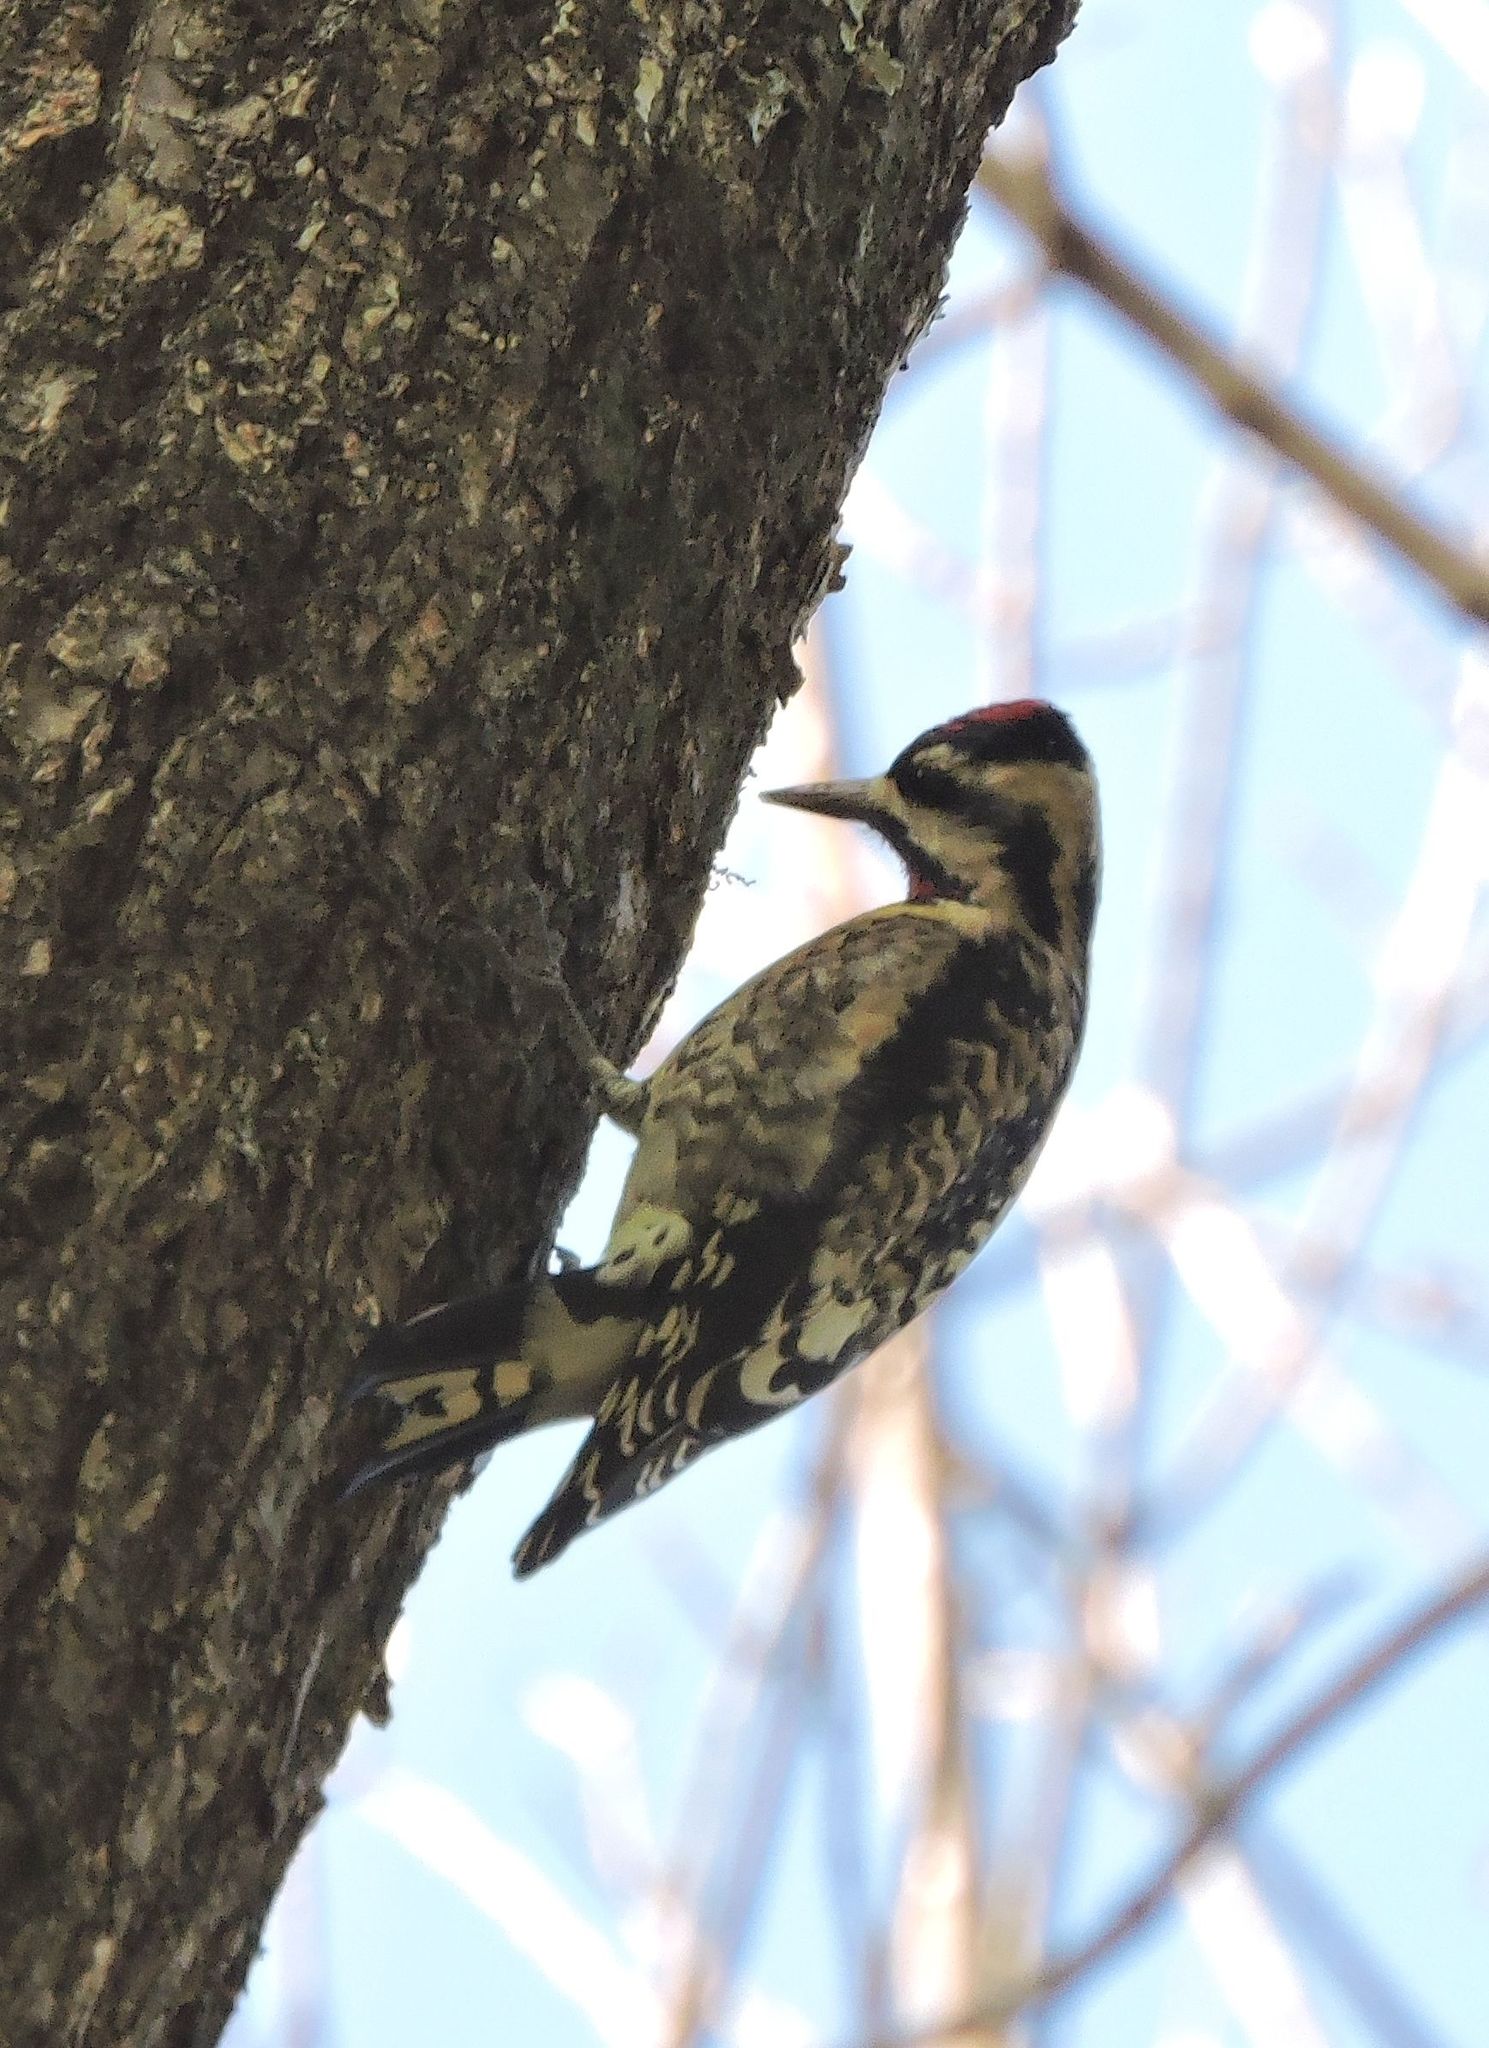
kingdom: Animalia
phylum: Chordata
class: Aves
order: Piciformes
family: Picidae
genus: Sphyrapicus
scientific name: Sphyrapicus varius
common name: Yellow-bellied sapsucker
